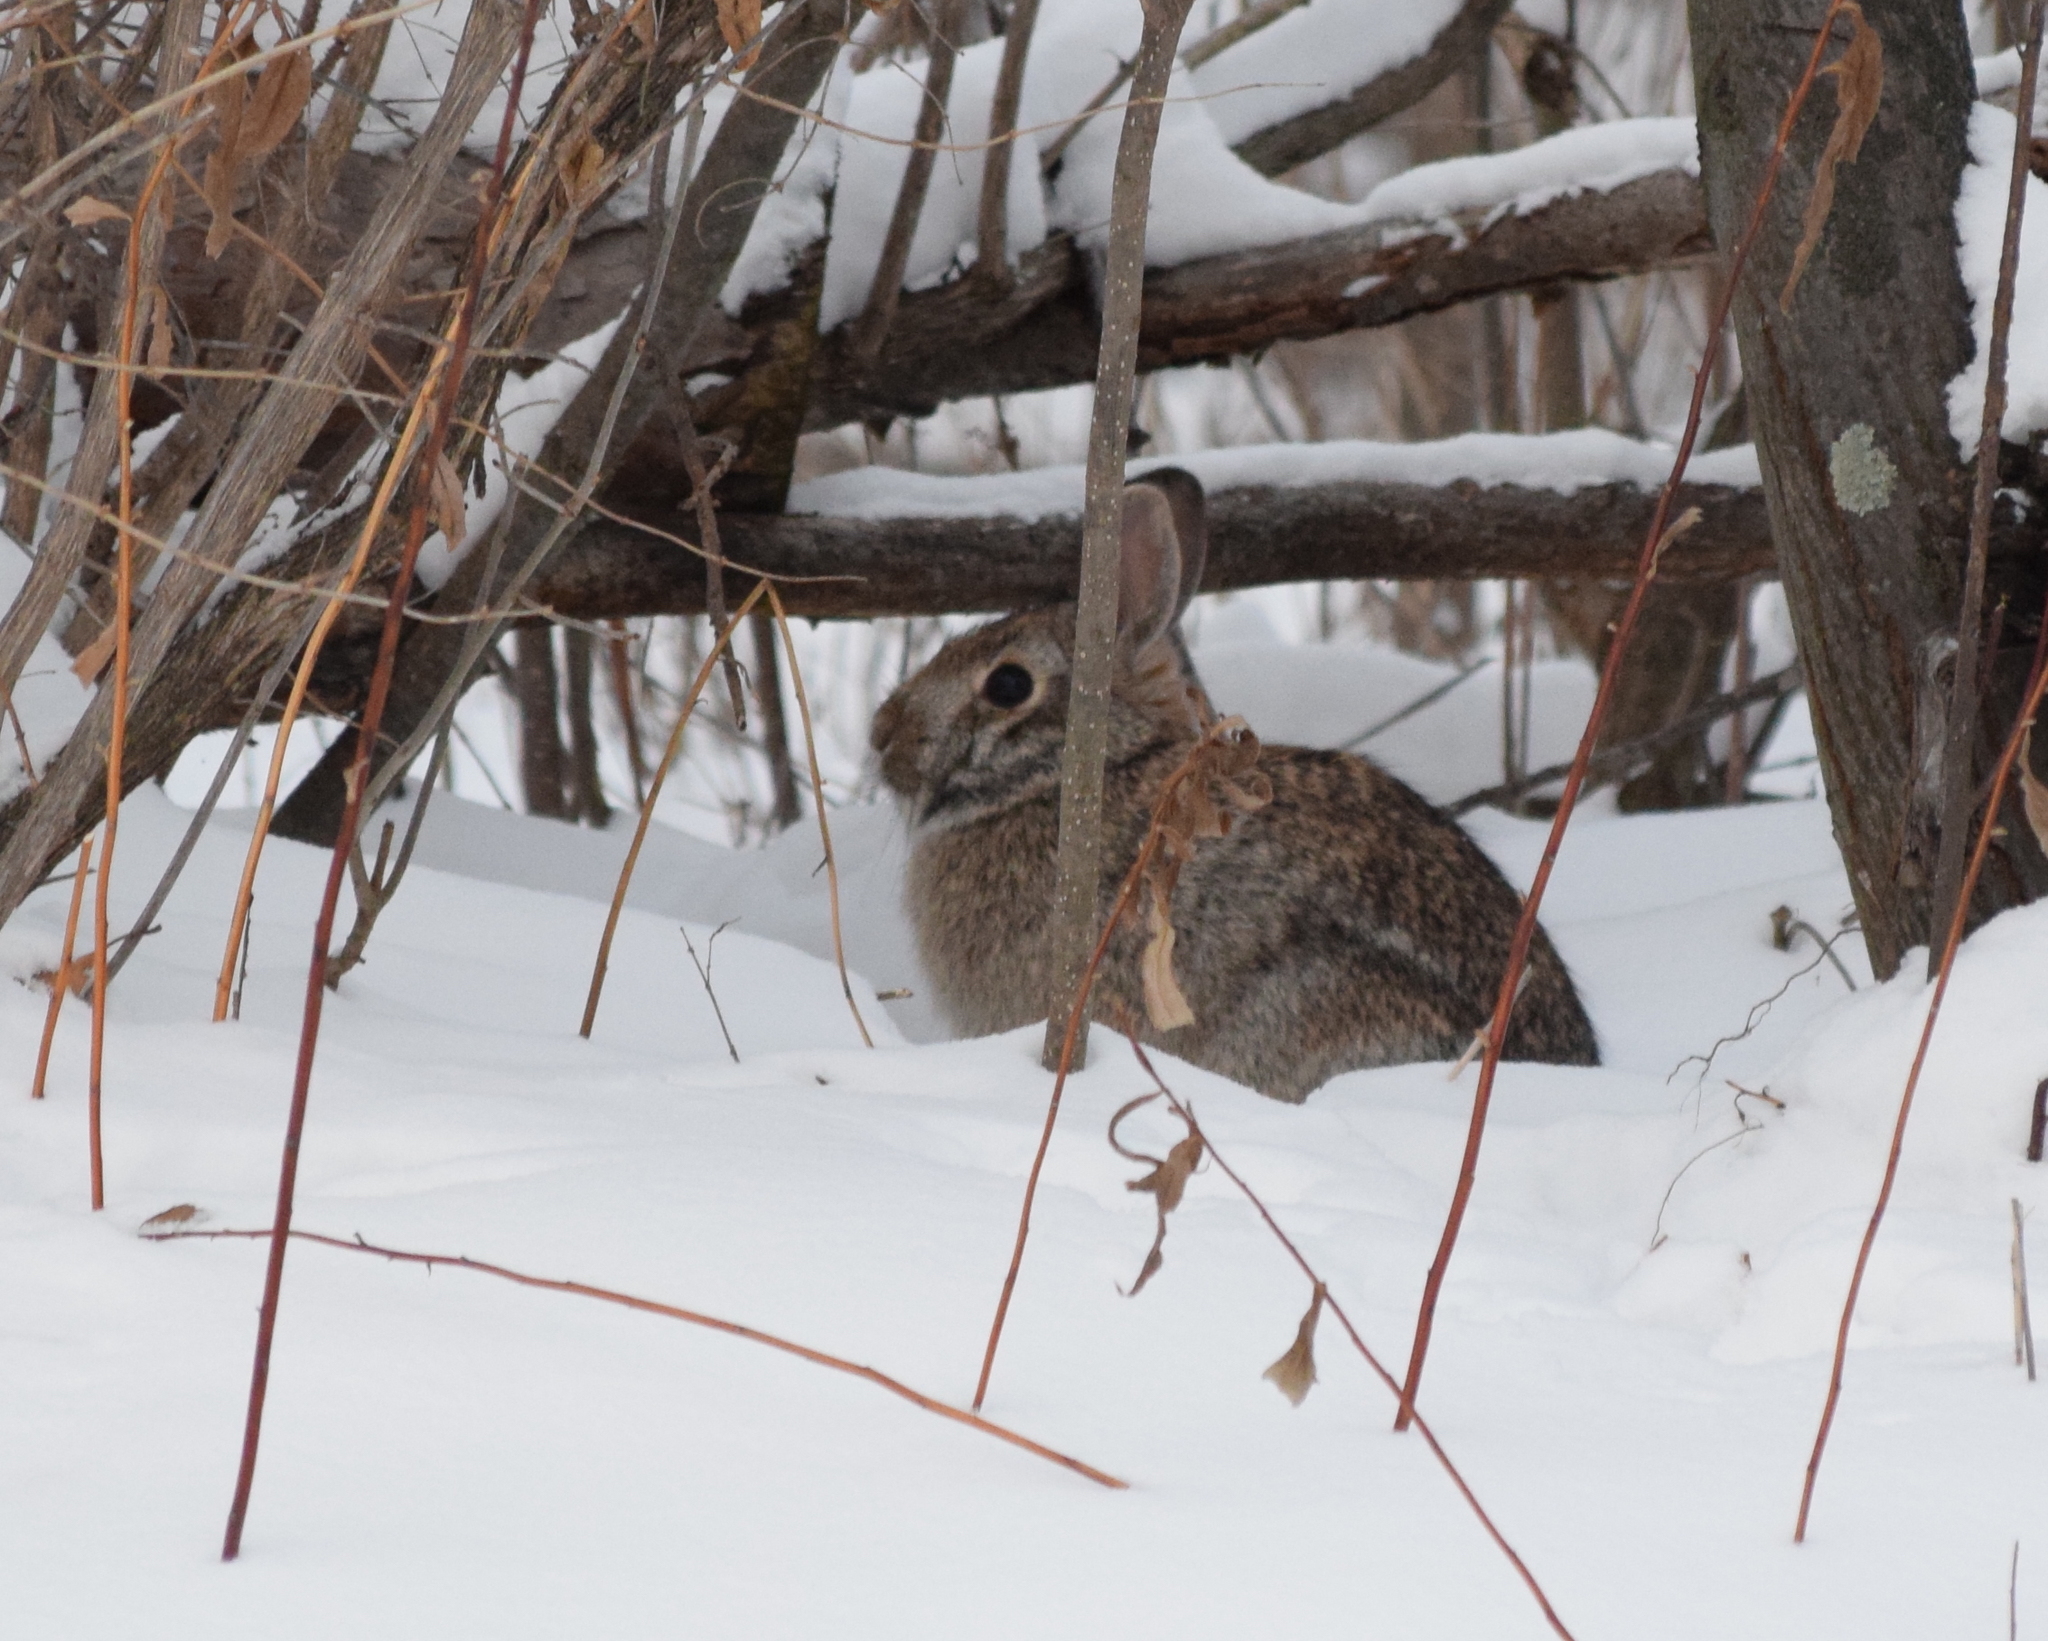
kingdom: Animalia
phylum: Chordata
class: Mammalia
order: Lagomorpha
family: Leporidae
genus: Sylvilagus
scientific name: Sylvilagus floridanus
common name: Eastern cottontail
